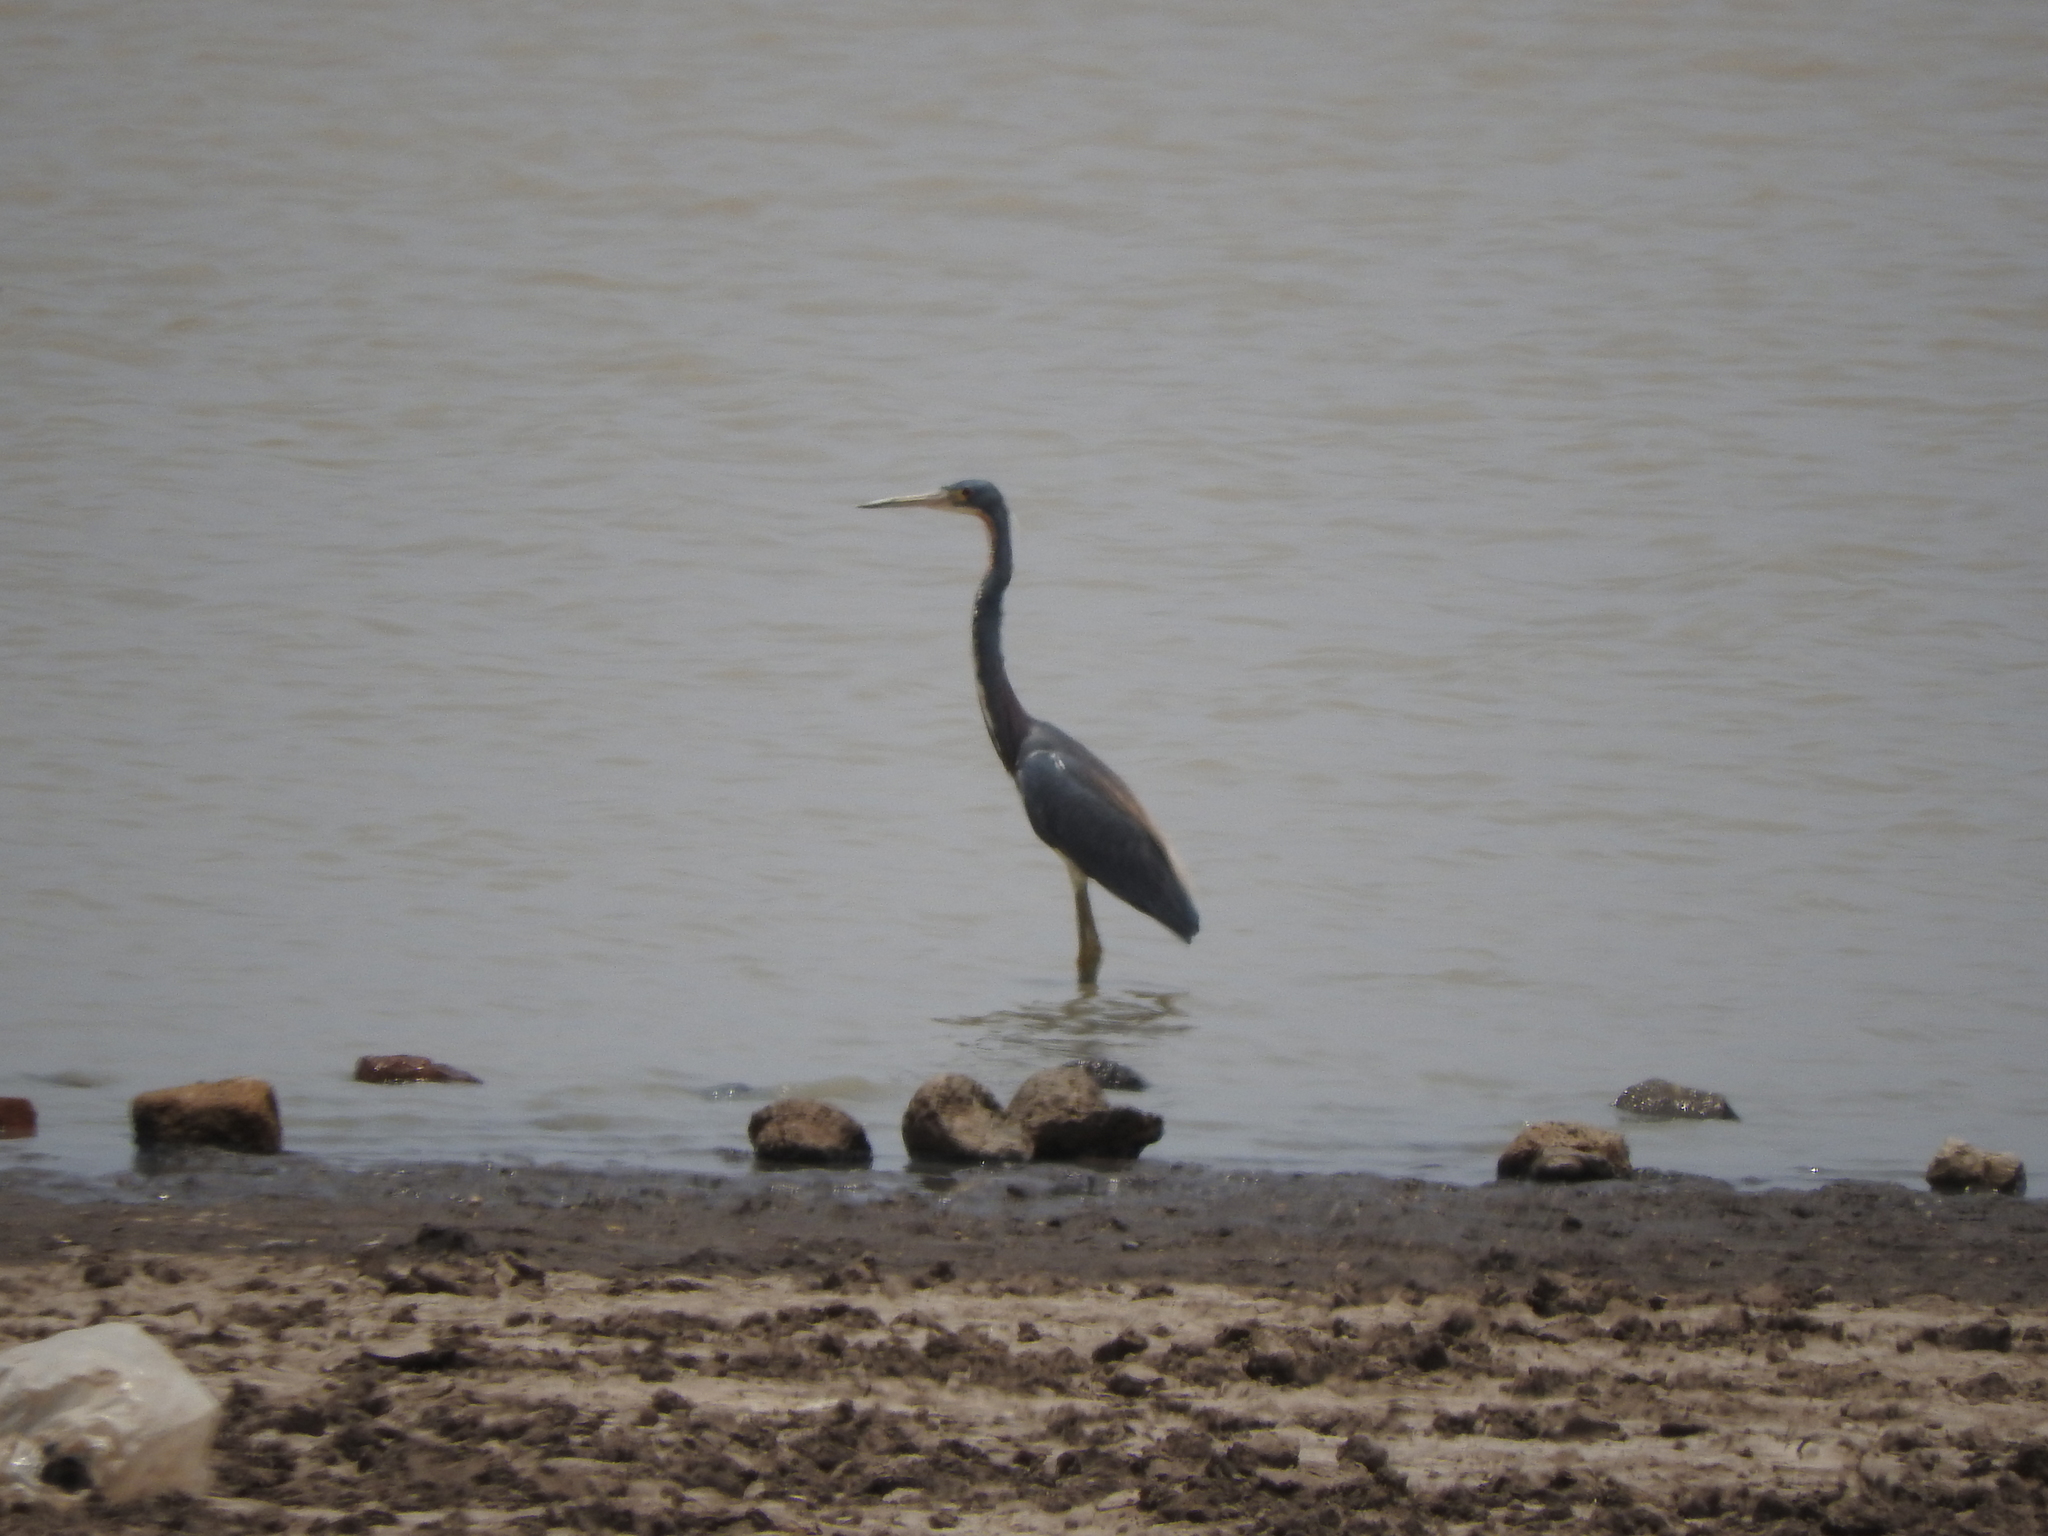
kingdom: Animalia
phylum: Chordata
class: Aves
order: Pelecaniformes
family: Ardeidae
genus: Egretta
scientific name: Egretta tricolor
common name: Tricolored heron
